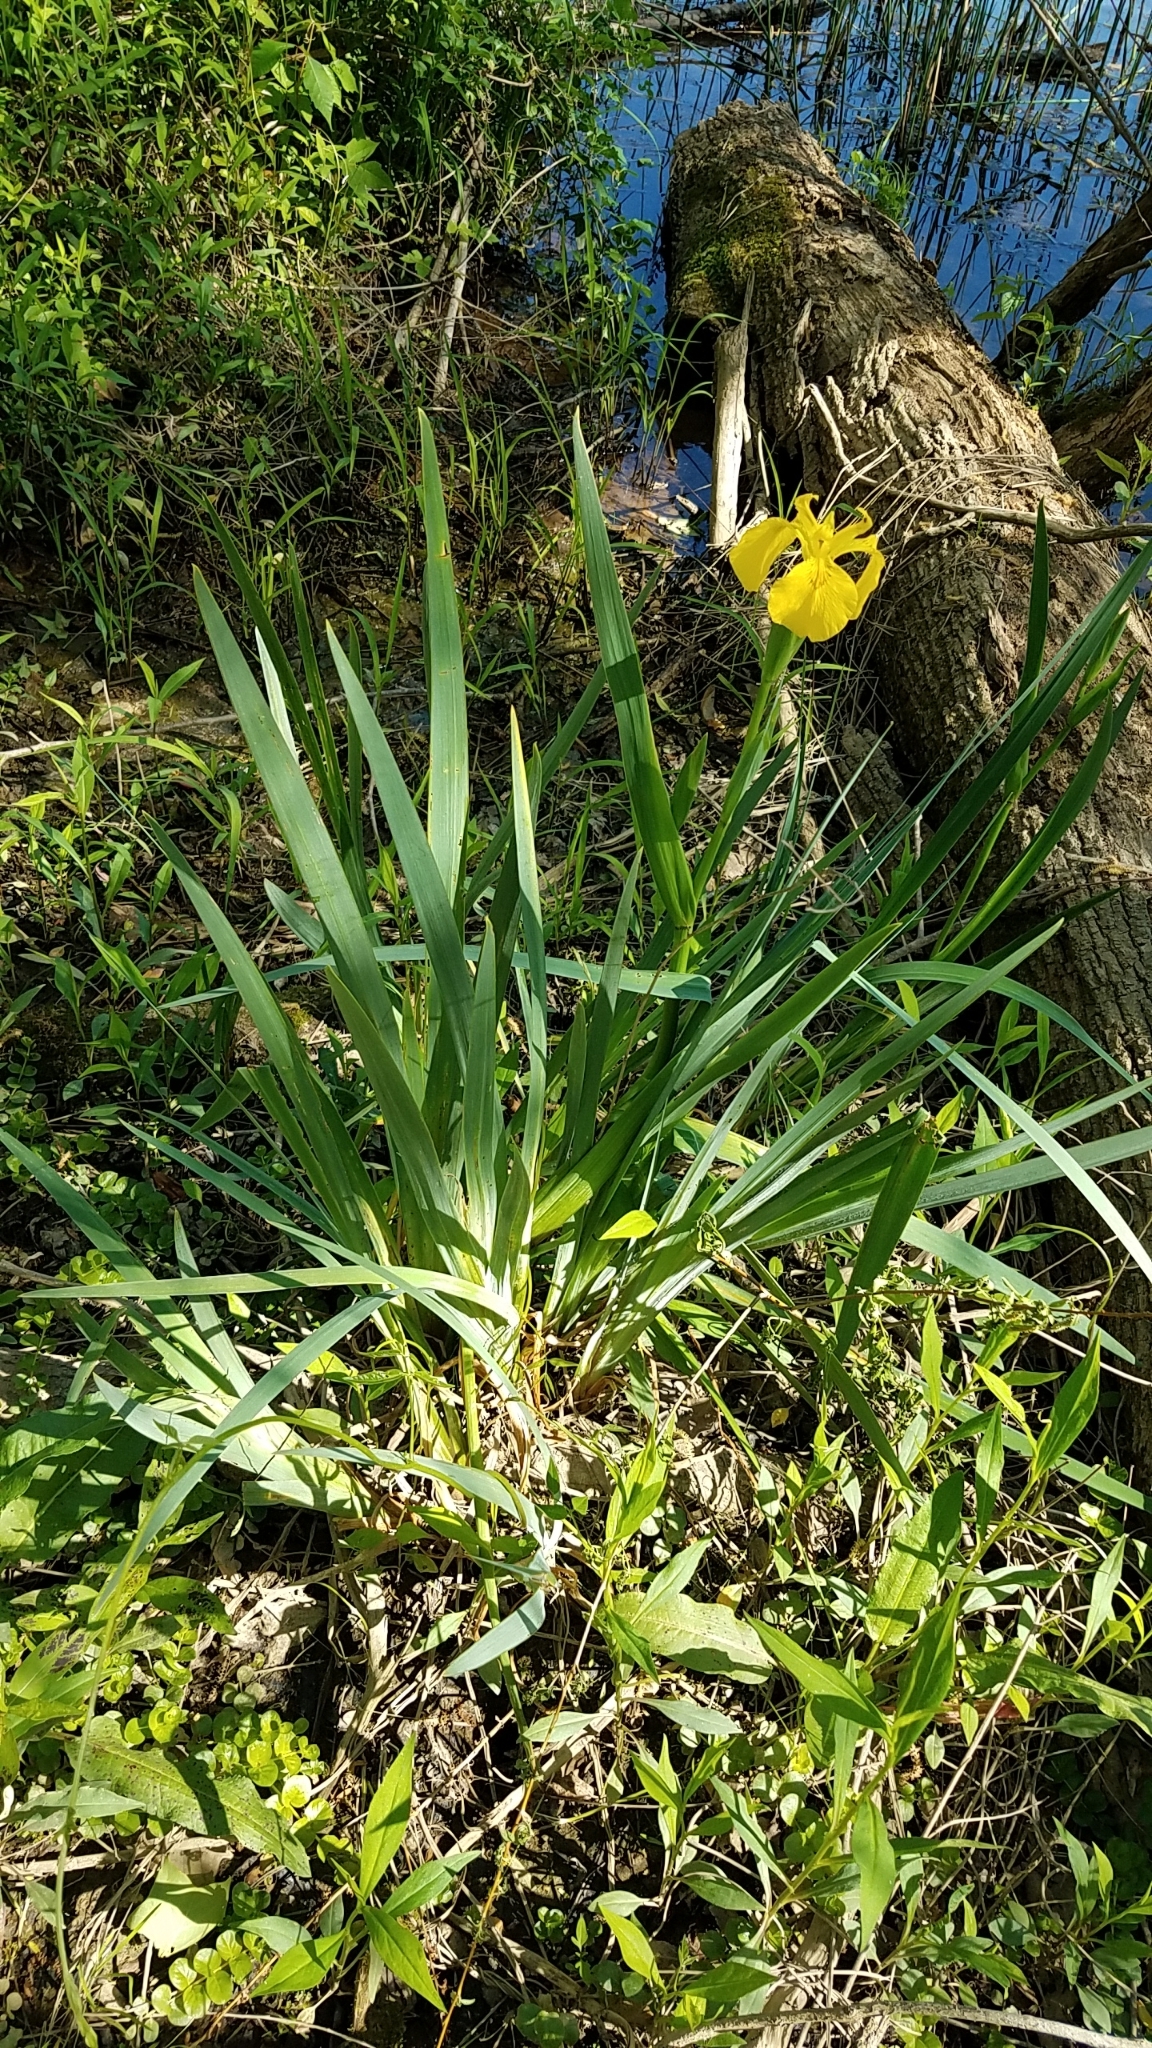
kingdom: Plantae
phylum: Tracheophyta
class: Liliopsida
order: Asparagales
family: Iridaceae
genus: Iris
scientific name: Iris pseudacorus
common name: Yellow flag
